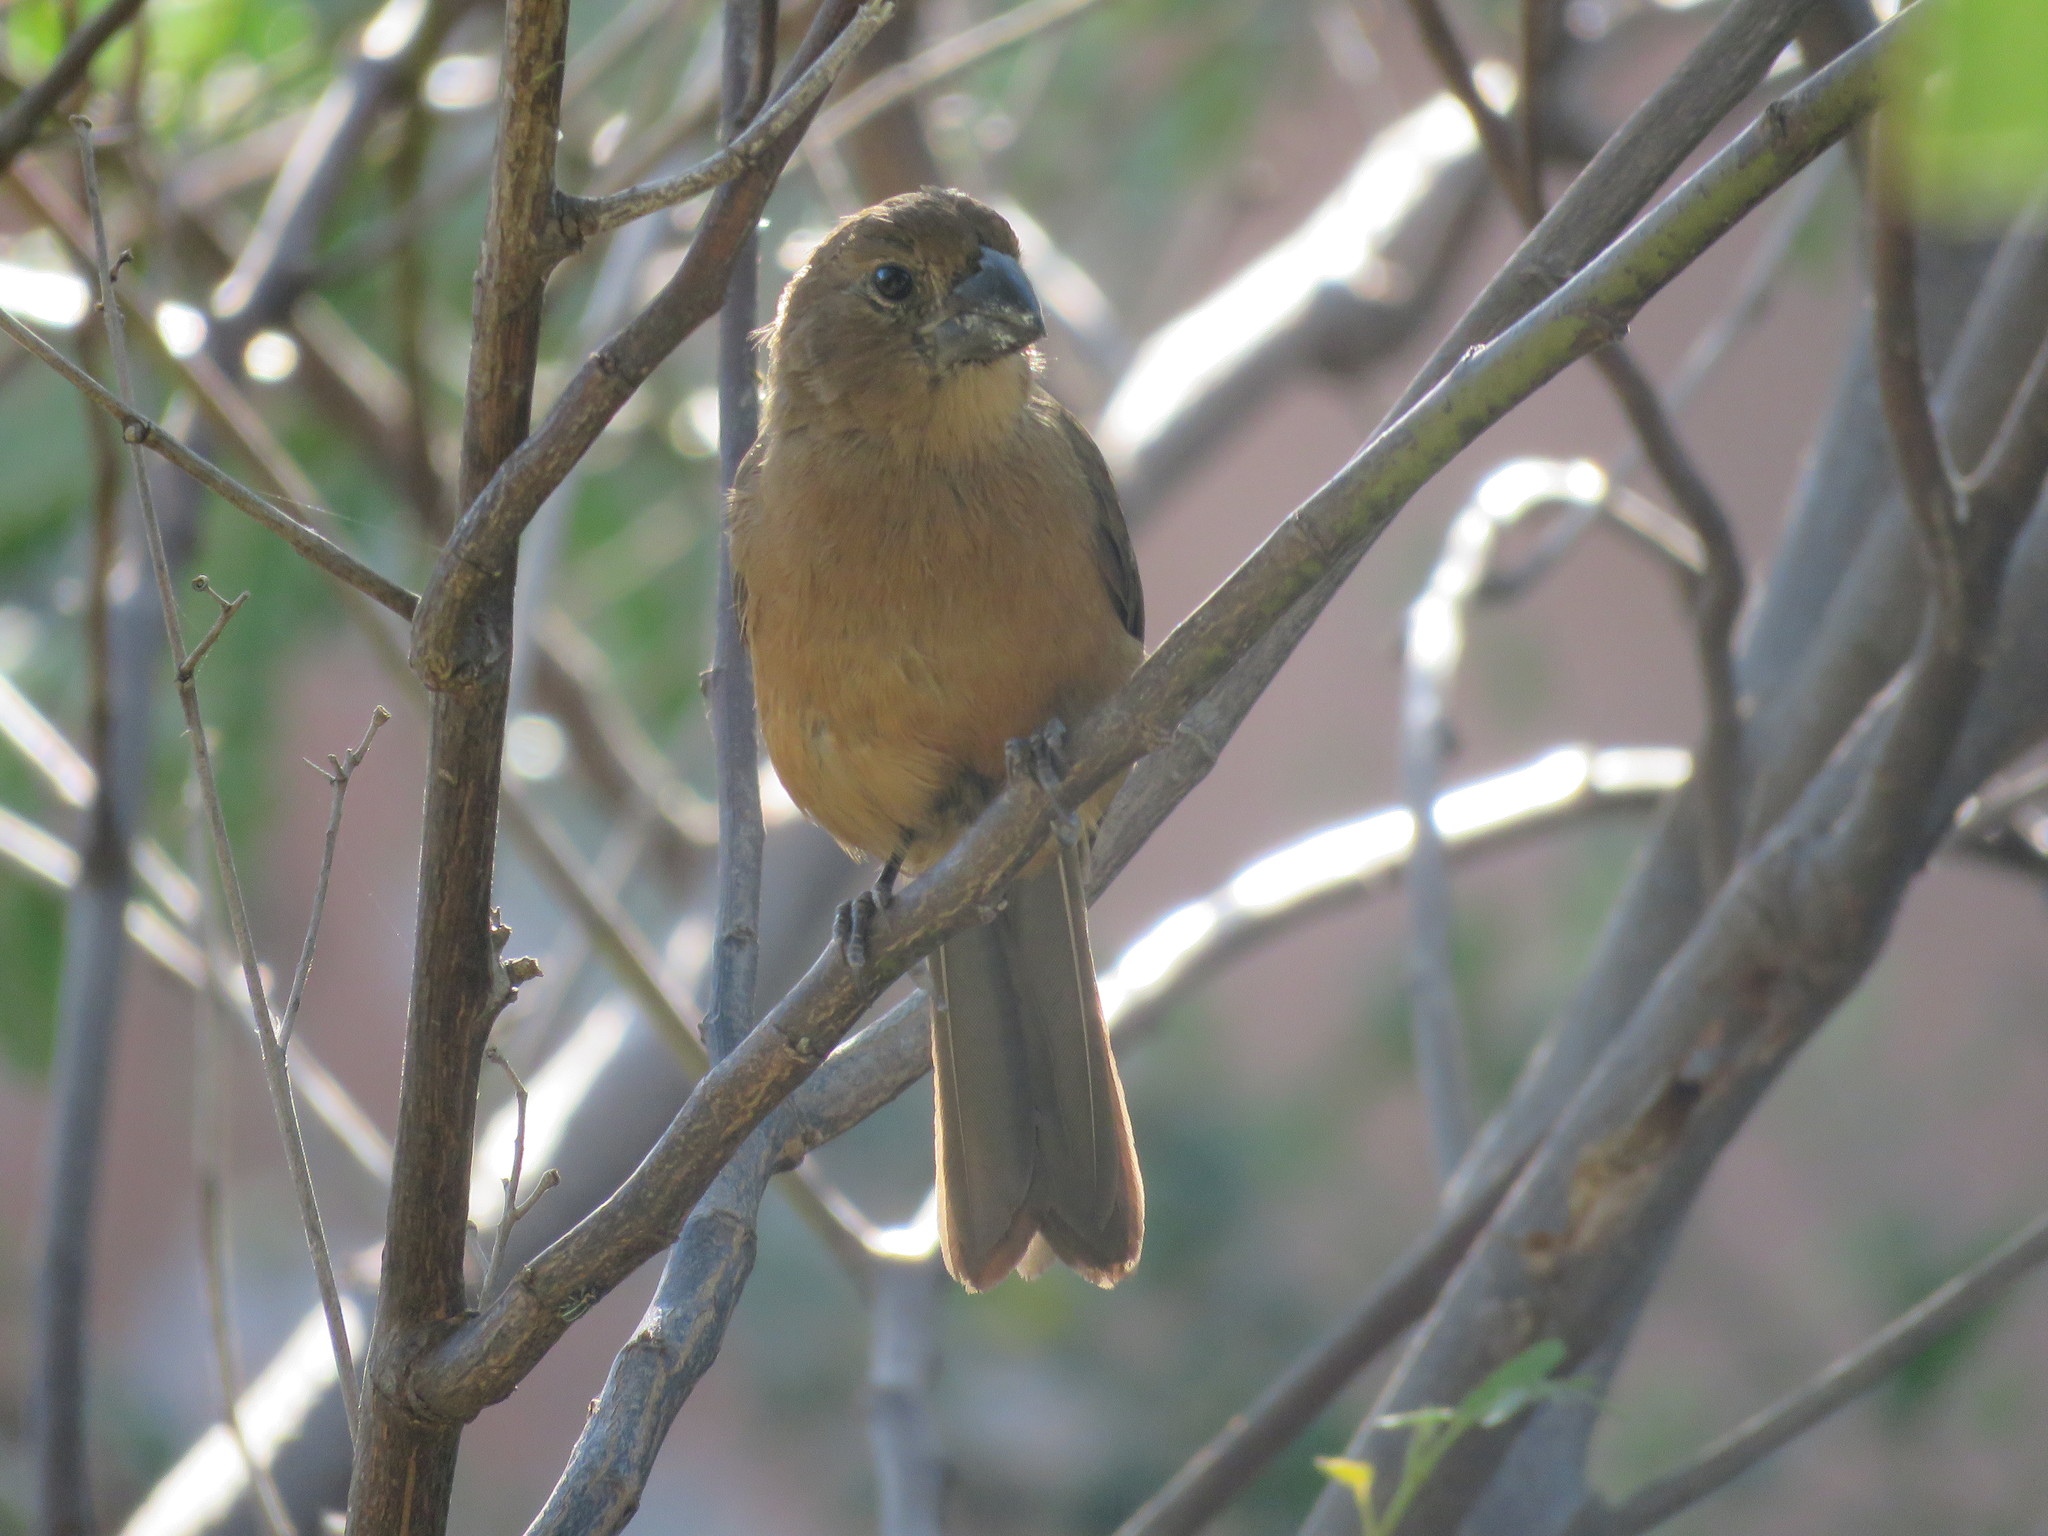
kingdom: Animalia
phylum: Chordata
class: Aves
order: Passeriformes
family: Cardinalidae
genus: Cyanoloxia
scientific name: Cyanoloxia brissonii
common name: Ultramarine grosbeak
